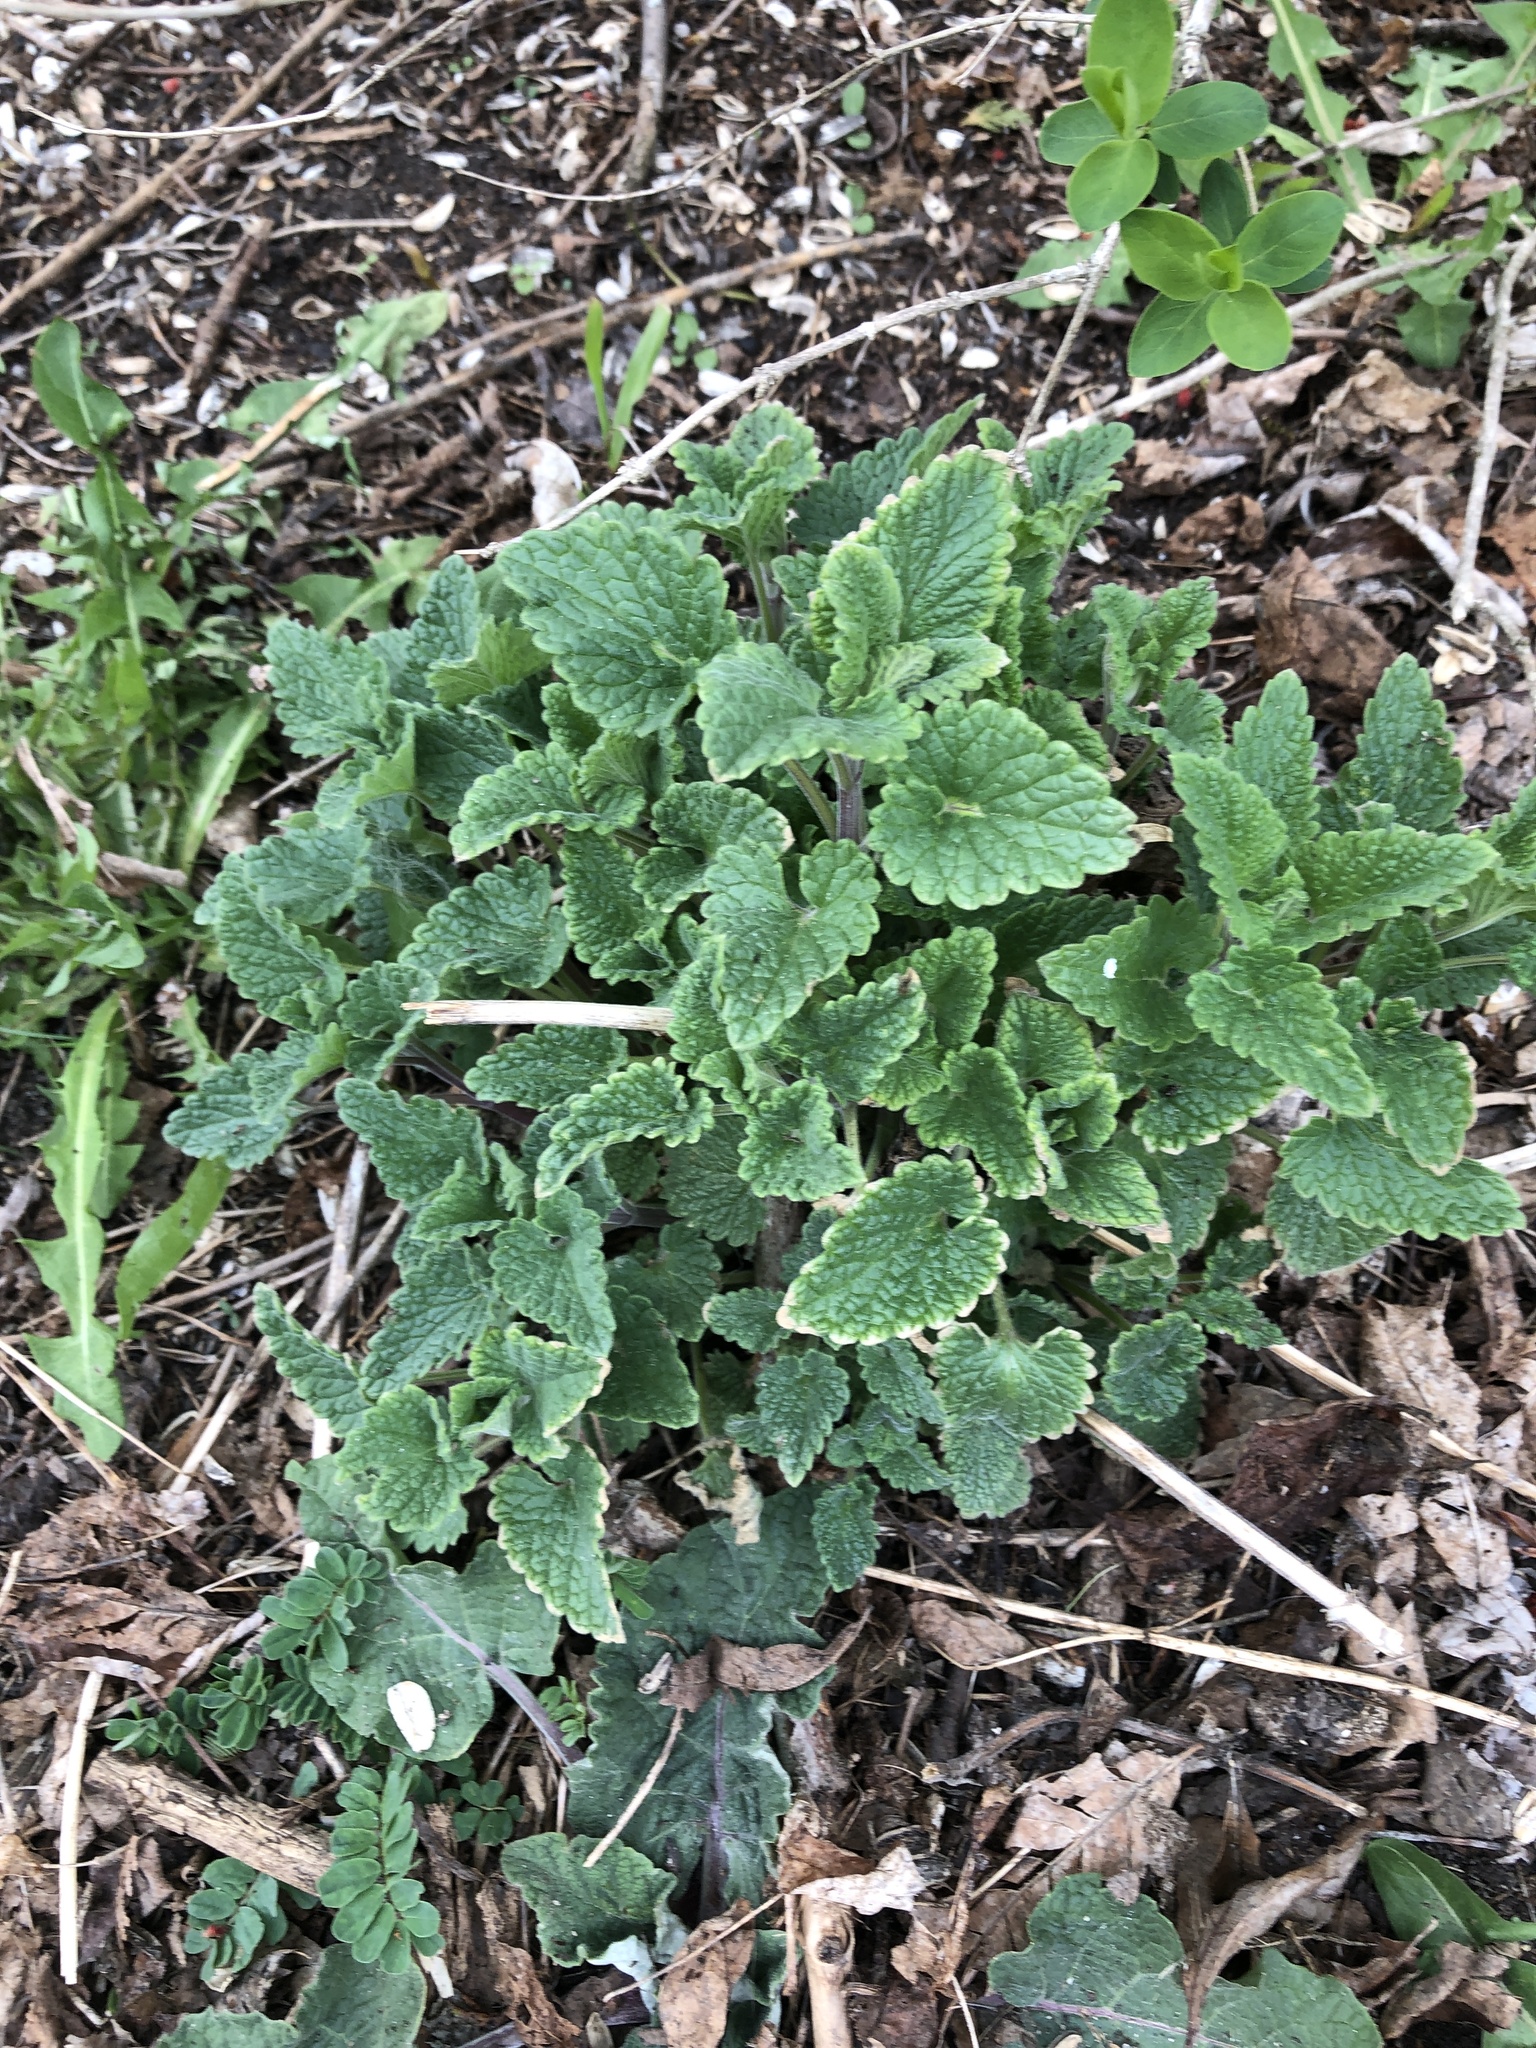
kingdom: Plantae
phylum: Tracheophyta
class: Magnoliopsida
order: Lamiales
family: Lamiaceae
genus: Nepeta
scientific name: Nepeta cataria
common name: Catnip
